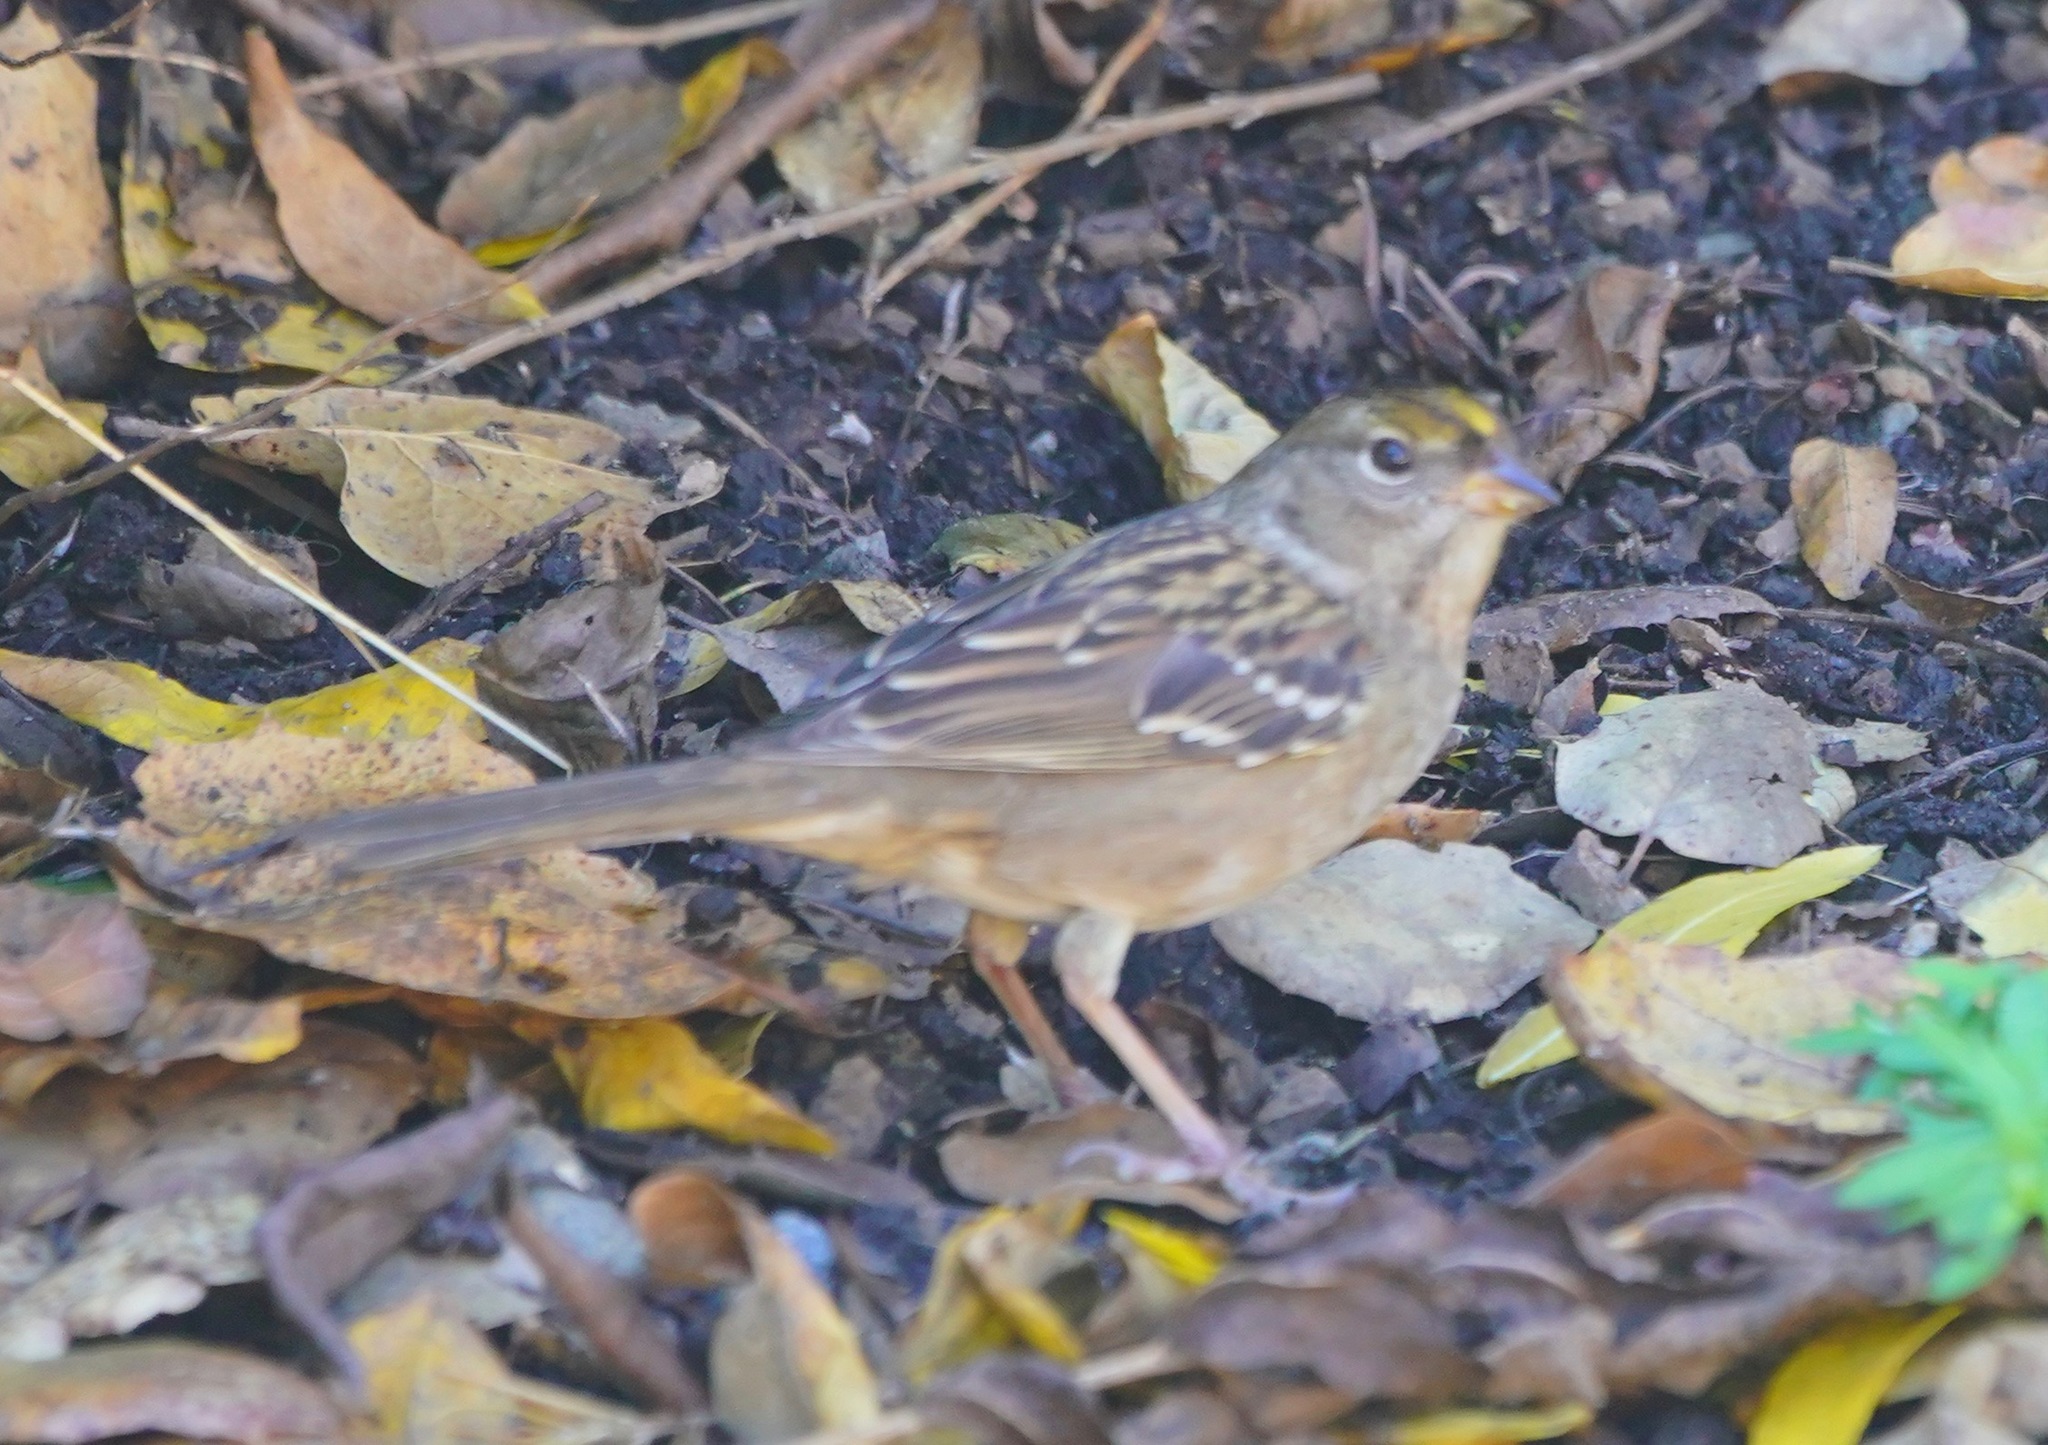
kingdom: Animalia
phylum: Chordata
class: Aves
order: Passeriformes
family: Passerellidae
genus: Zonotrichia
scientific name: Zonotrichia atricapilla
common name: Golden-crowned sparrow
